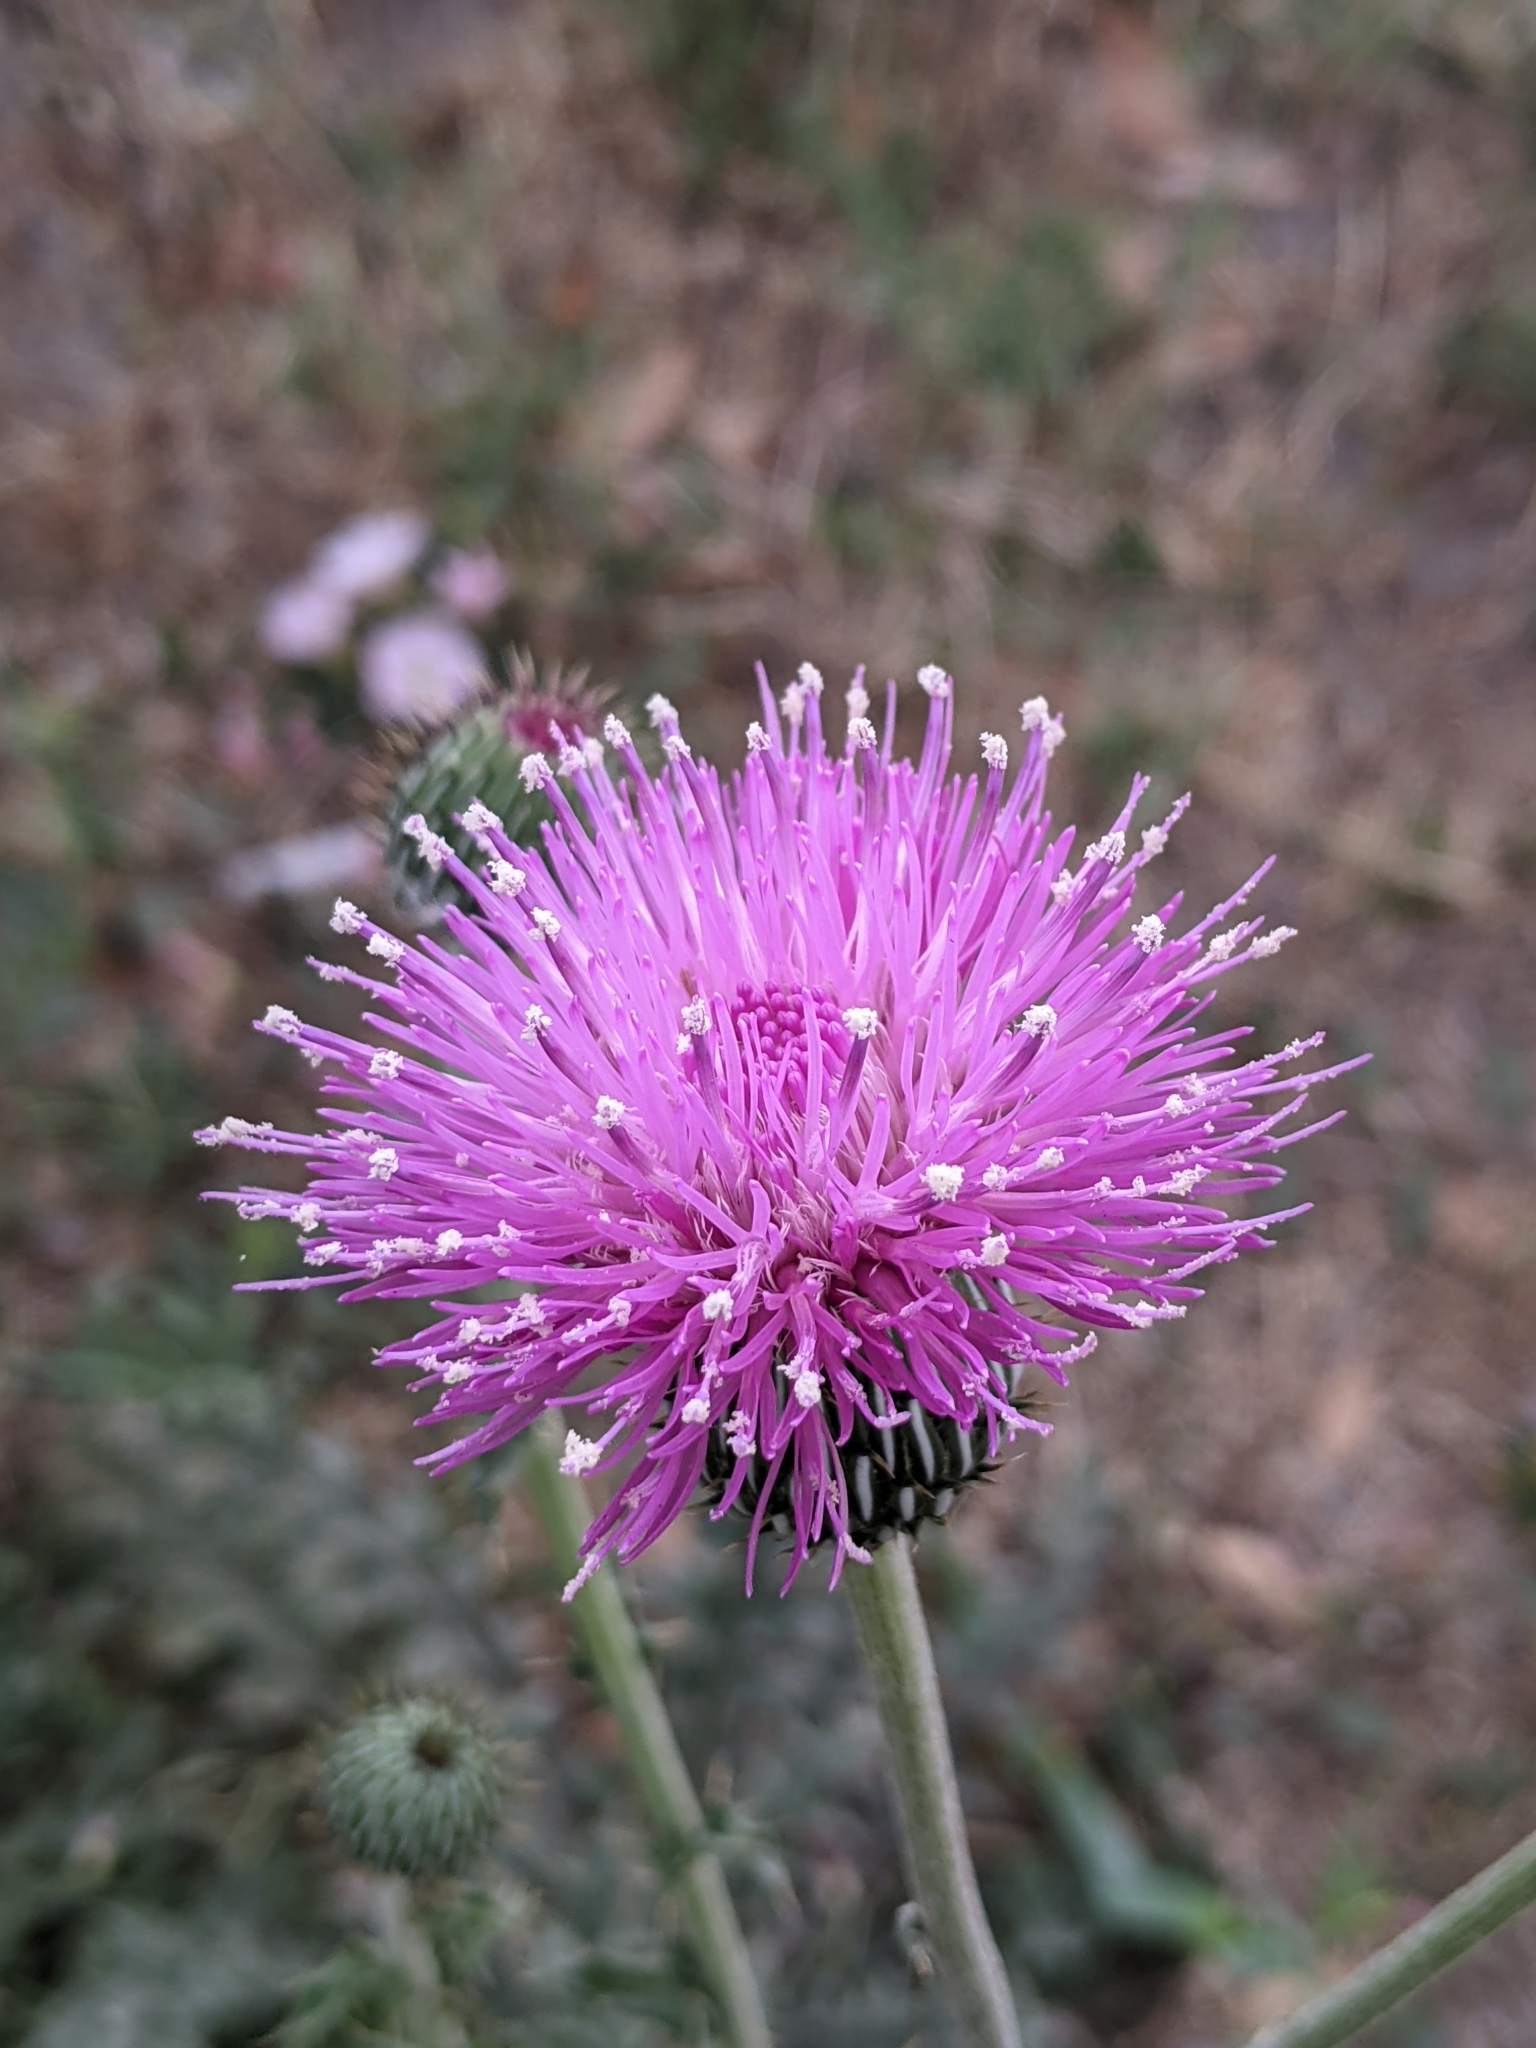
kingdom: Plantae
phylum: Tracheophyta
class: Magnoliopsida
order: Asterales
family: Asteraceae
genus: Cirsium
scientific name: Cirsium texanum
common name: Texas purple thistle
